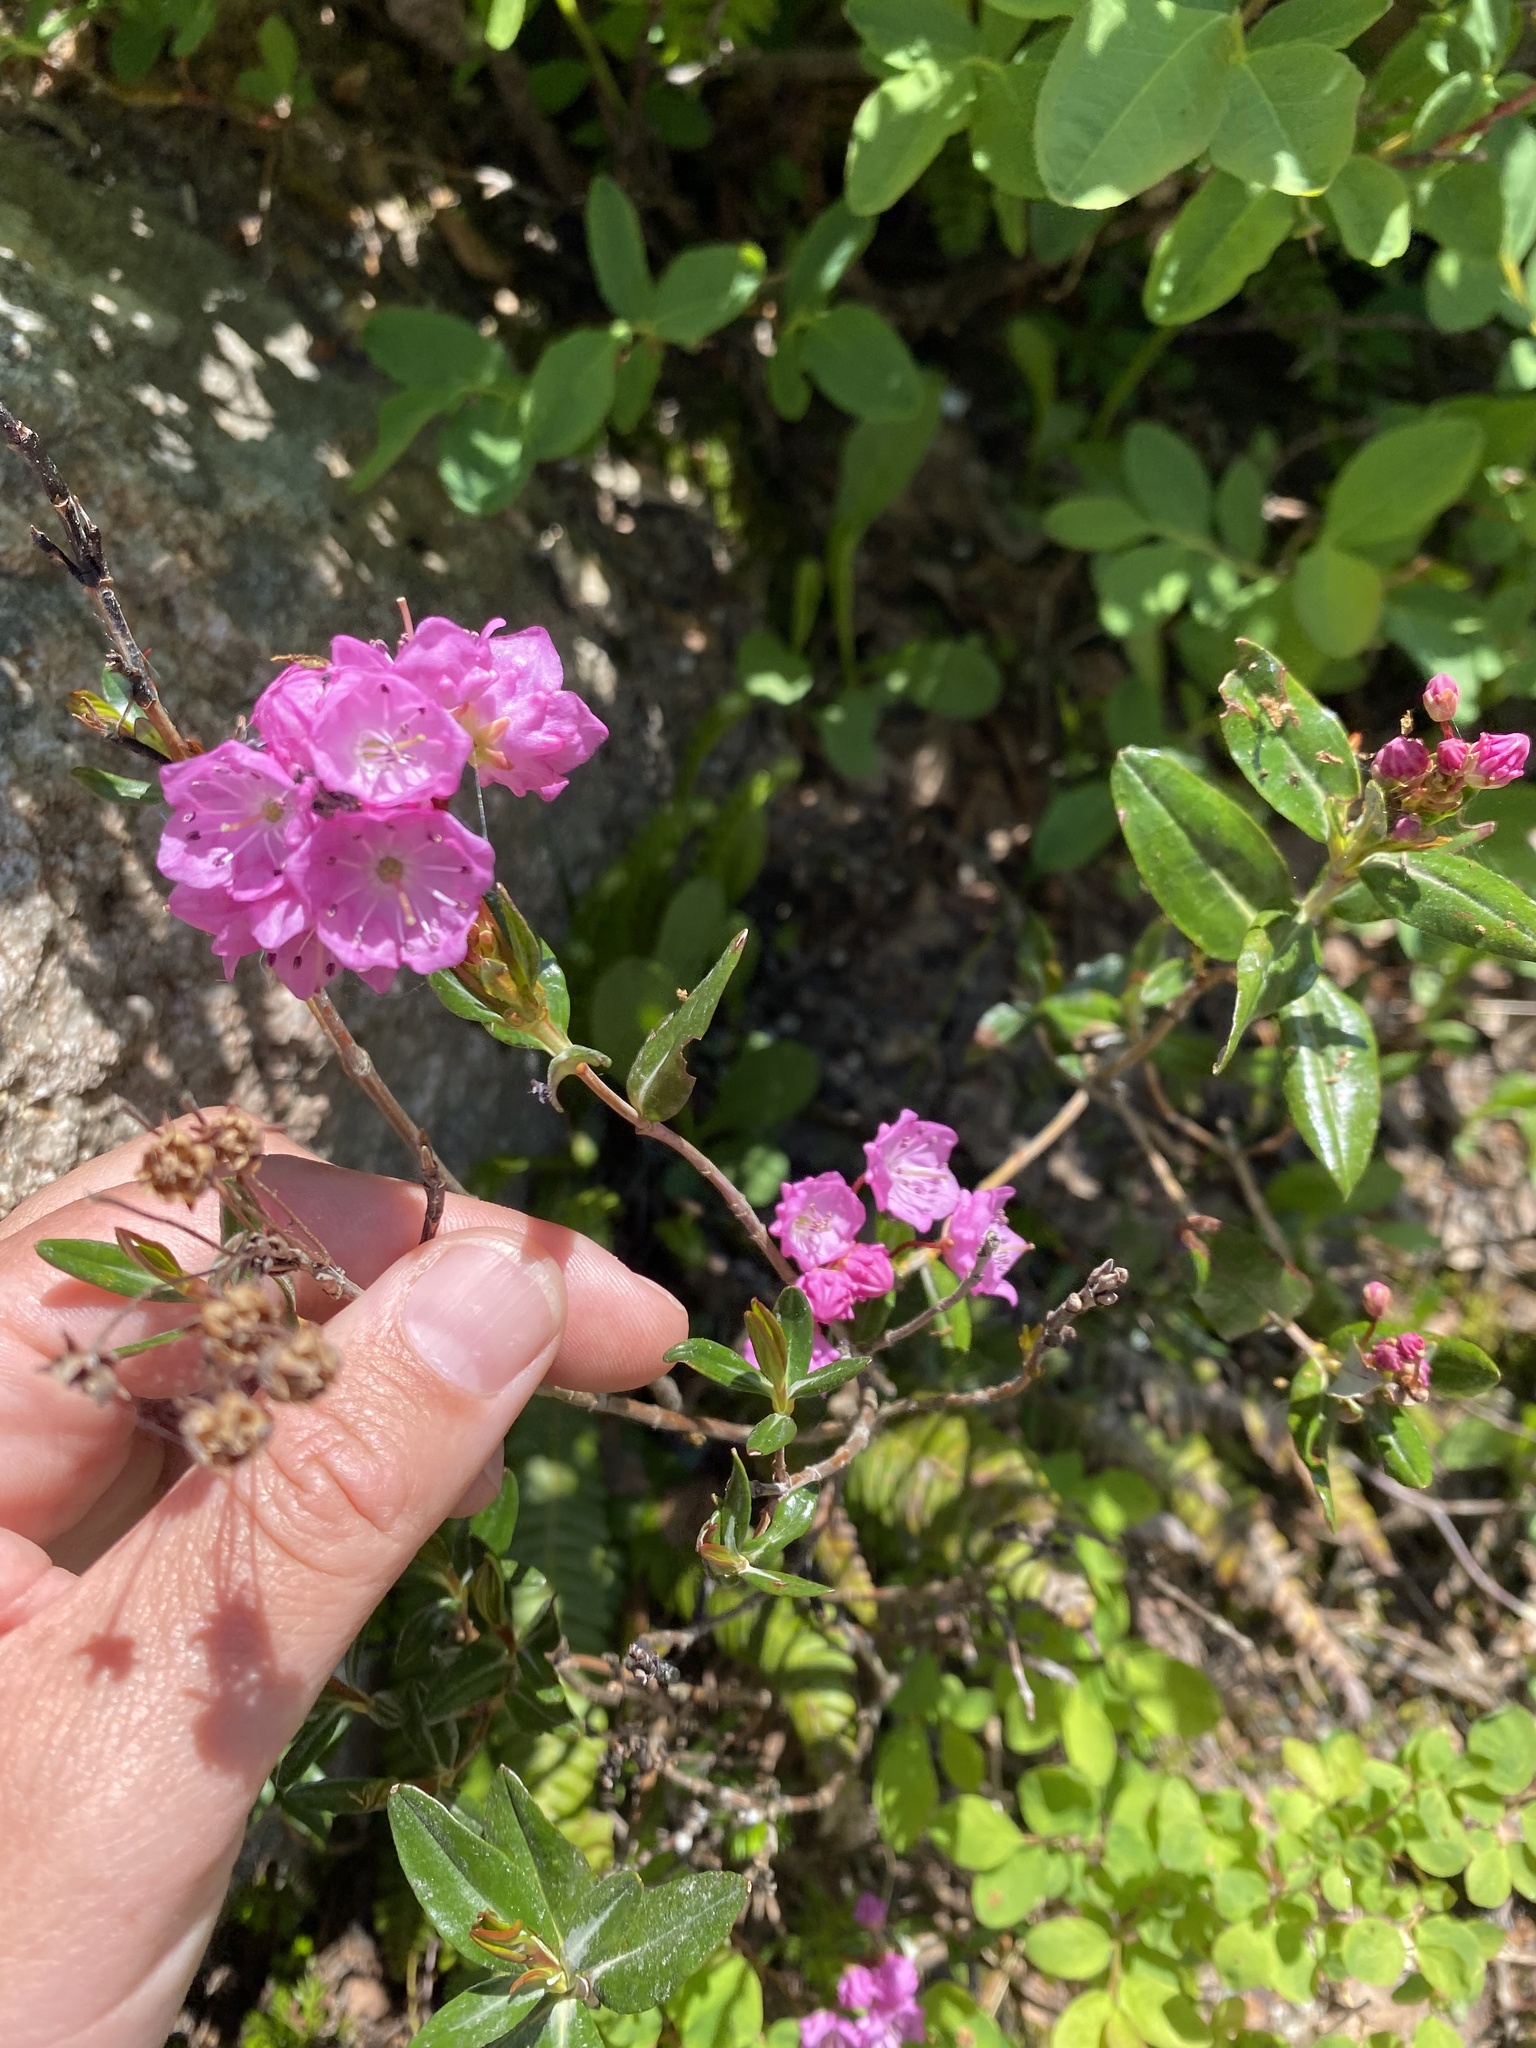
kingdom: Plantae
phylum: Tracheophyta
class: Magnoliopsida
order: Ericales
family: Ericaceae
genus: Kalmia
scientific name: Kalmia microphylla
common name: Alpine bog laurel
